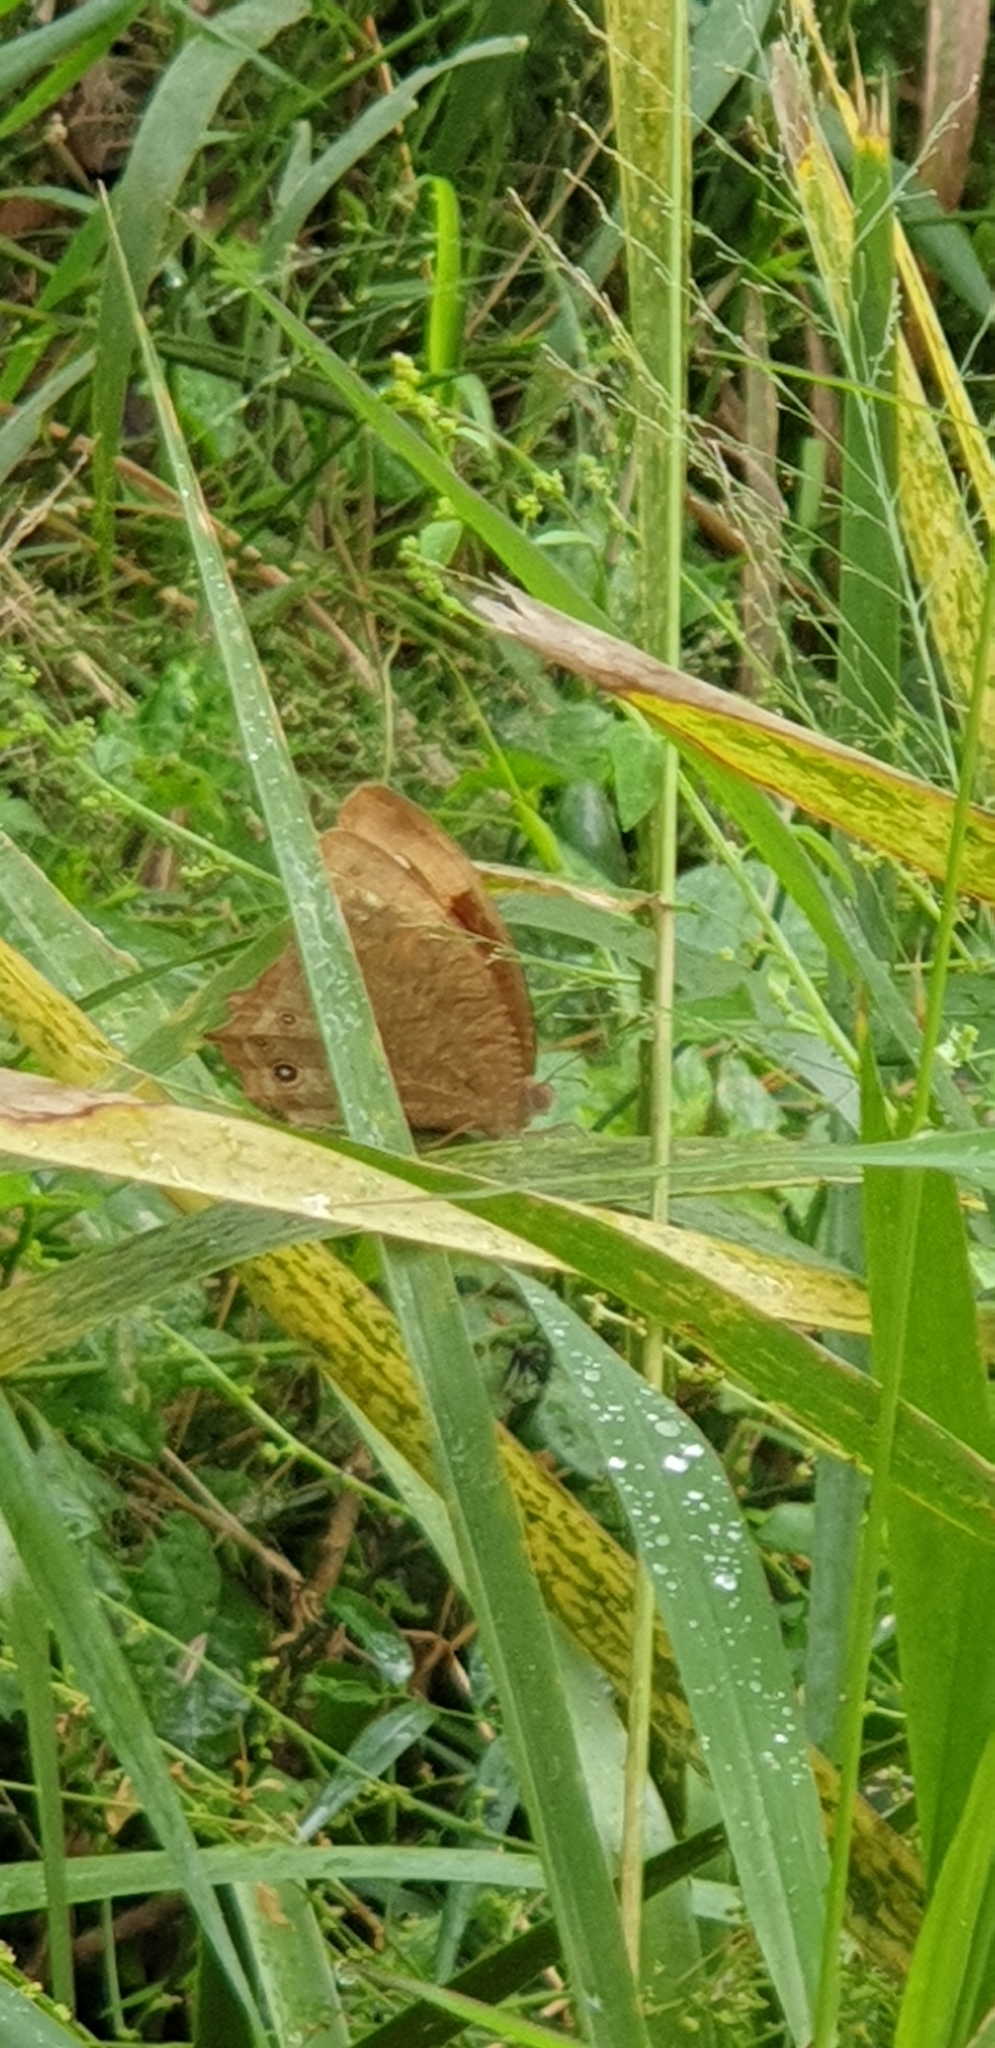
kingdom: Animalia
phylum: Arthropoda
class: Insecta
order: Lepidoptera
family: Nymphalidae
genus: Melanitis
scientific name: Melanitis leda
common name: Twilight brown
